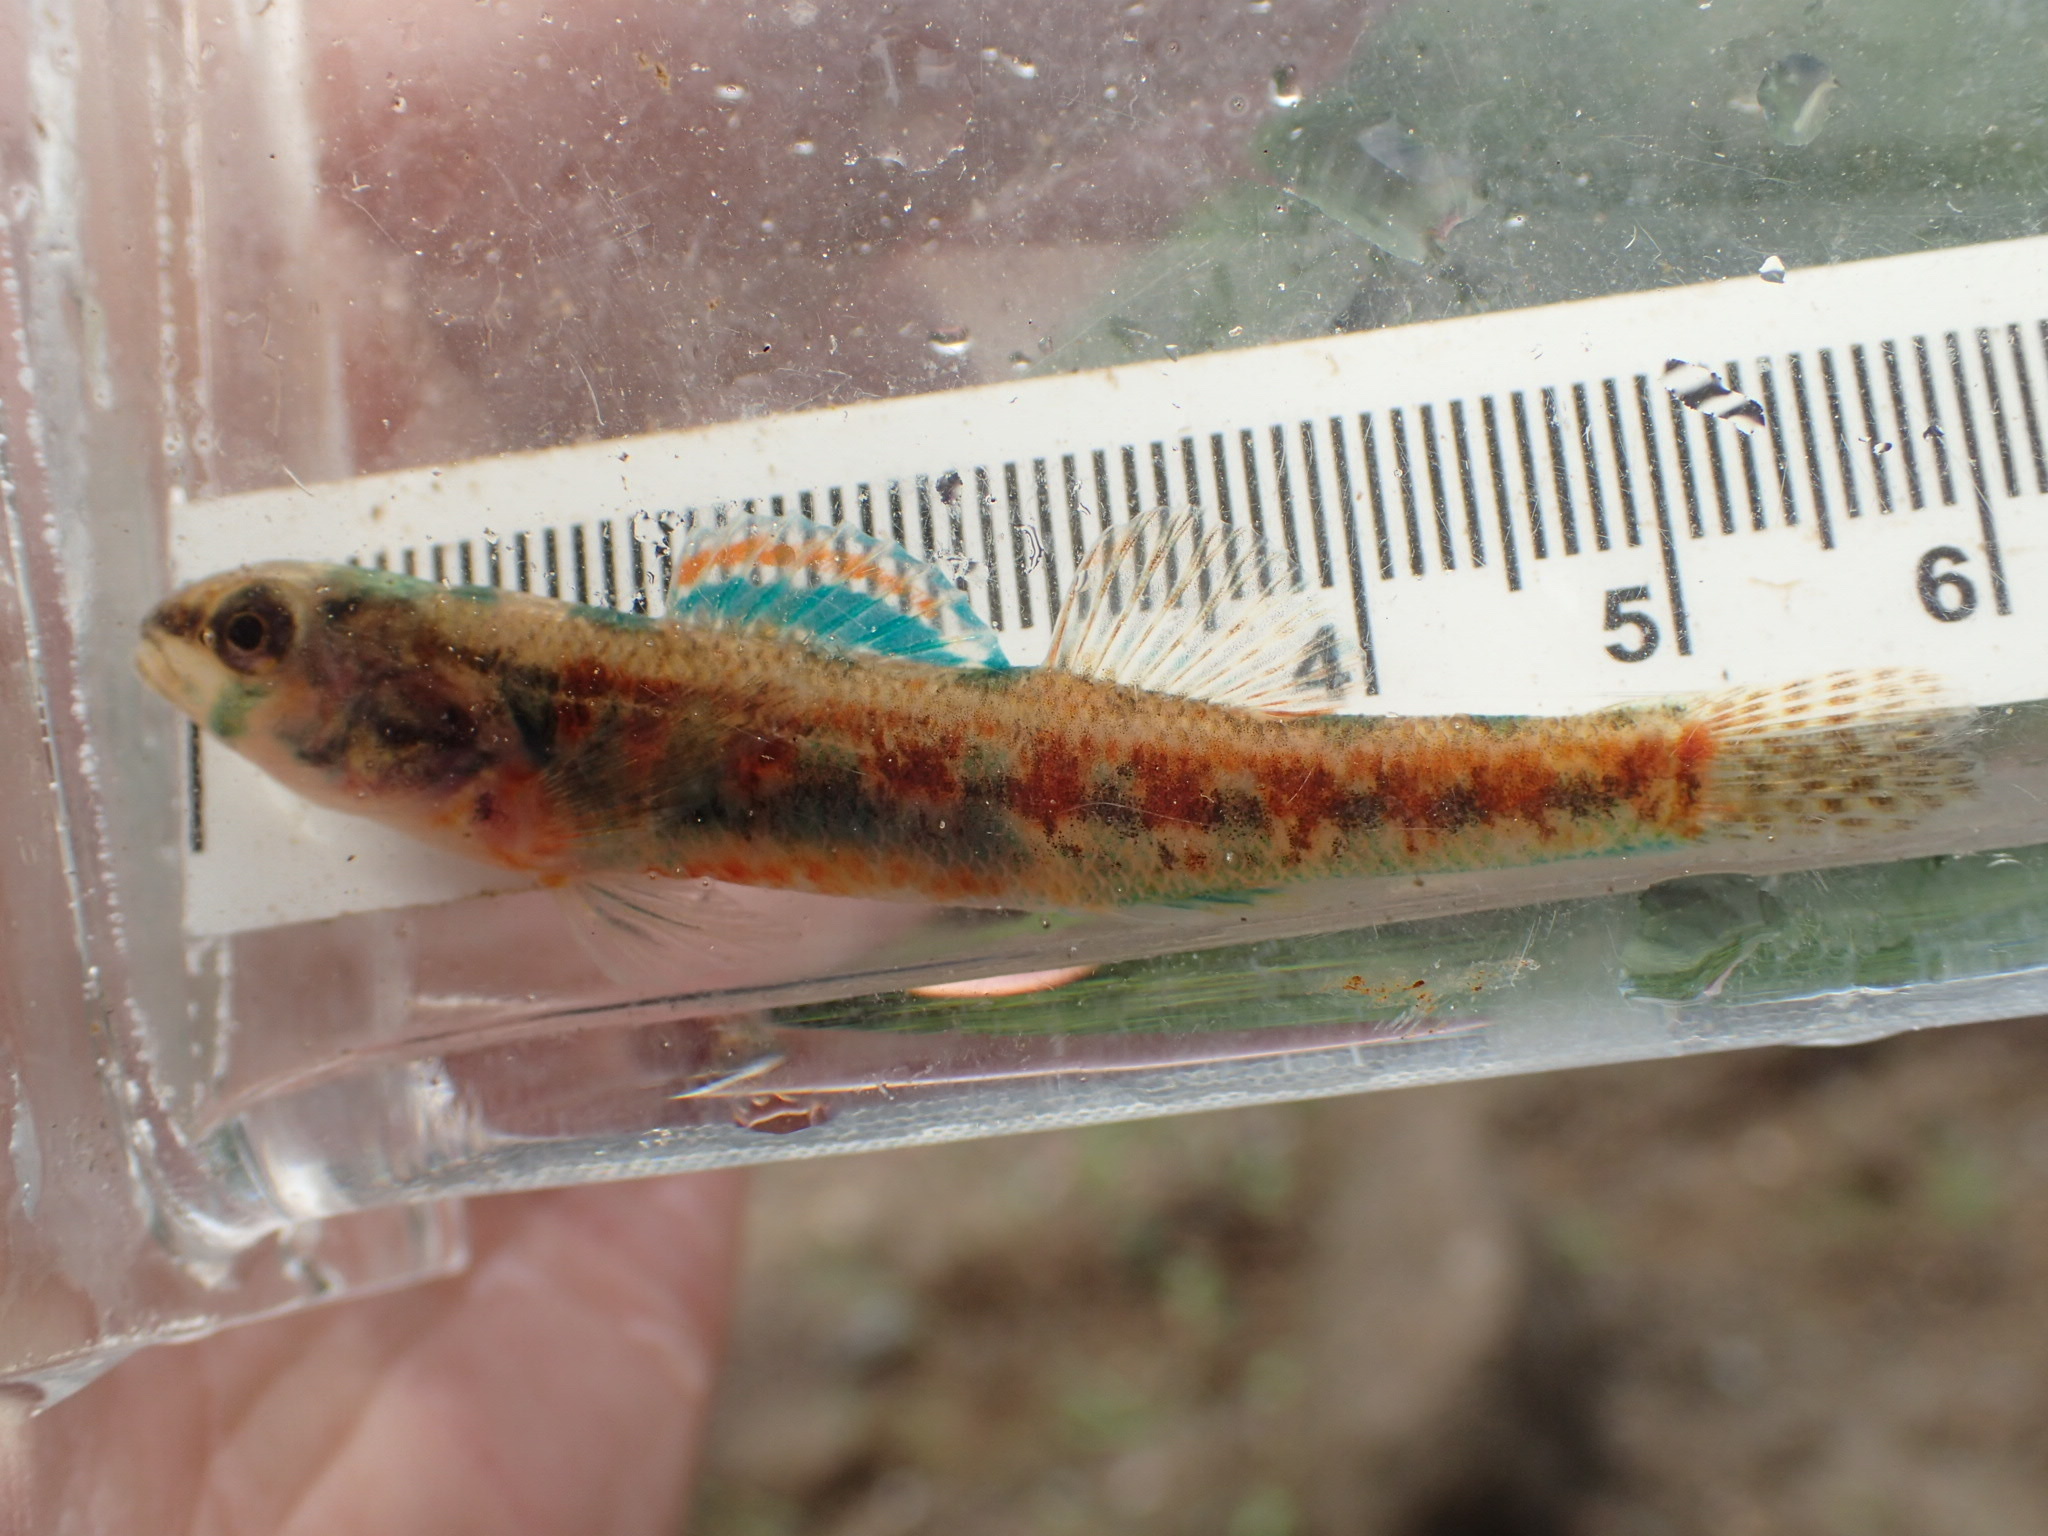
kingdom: Animalia
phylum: Chordata
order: Perciformes
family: Percidae
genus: Etheostoma
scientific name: Etheostoma exile
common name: Iowa darter
